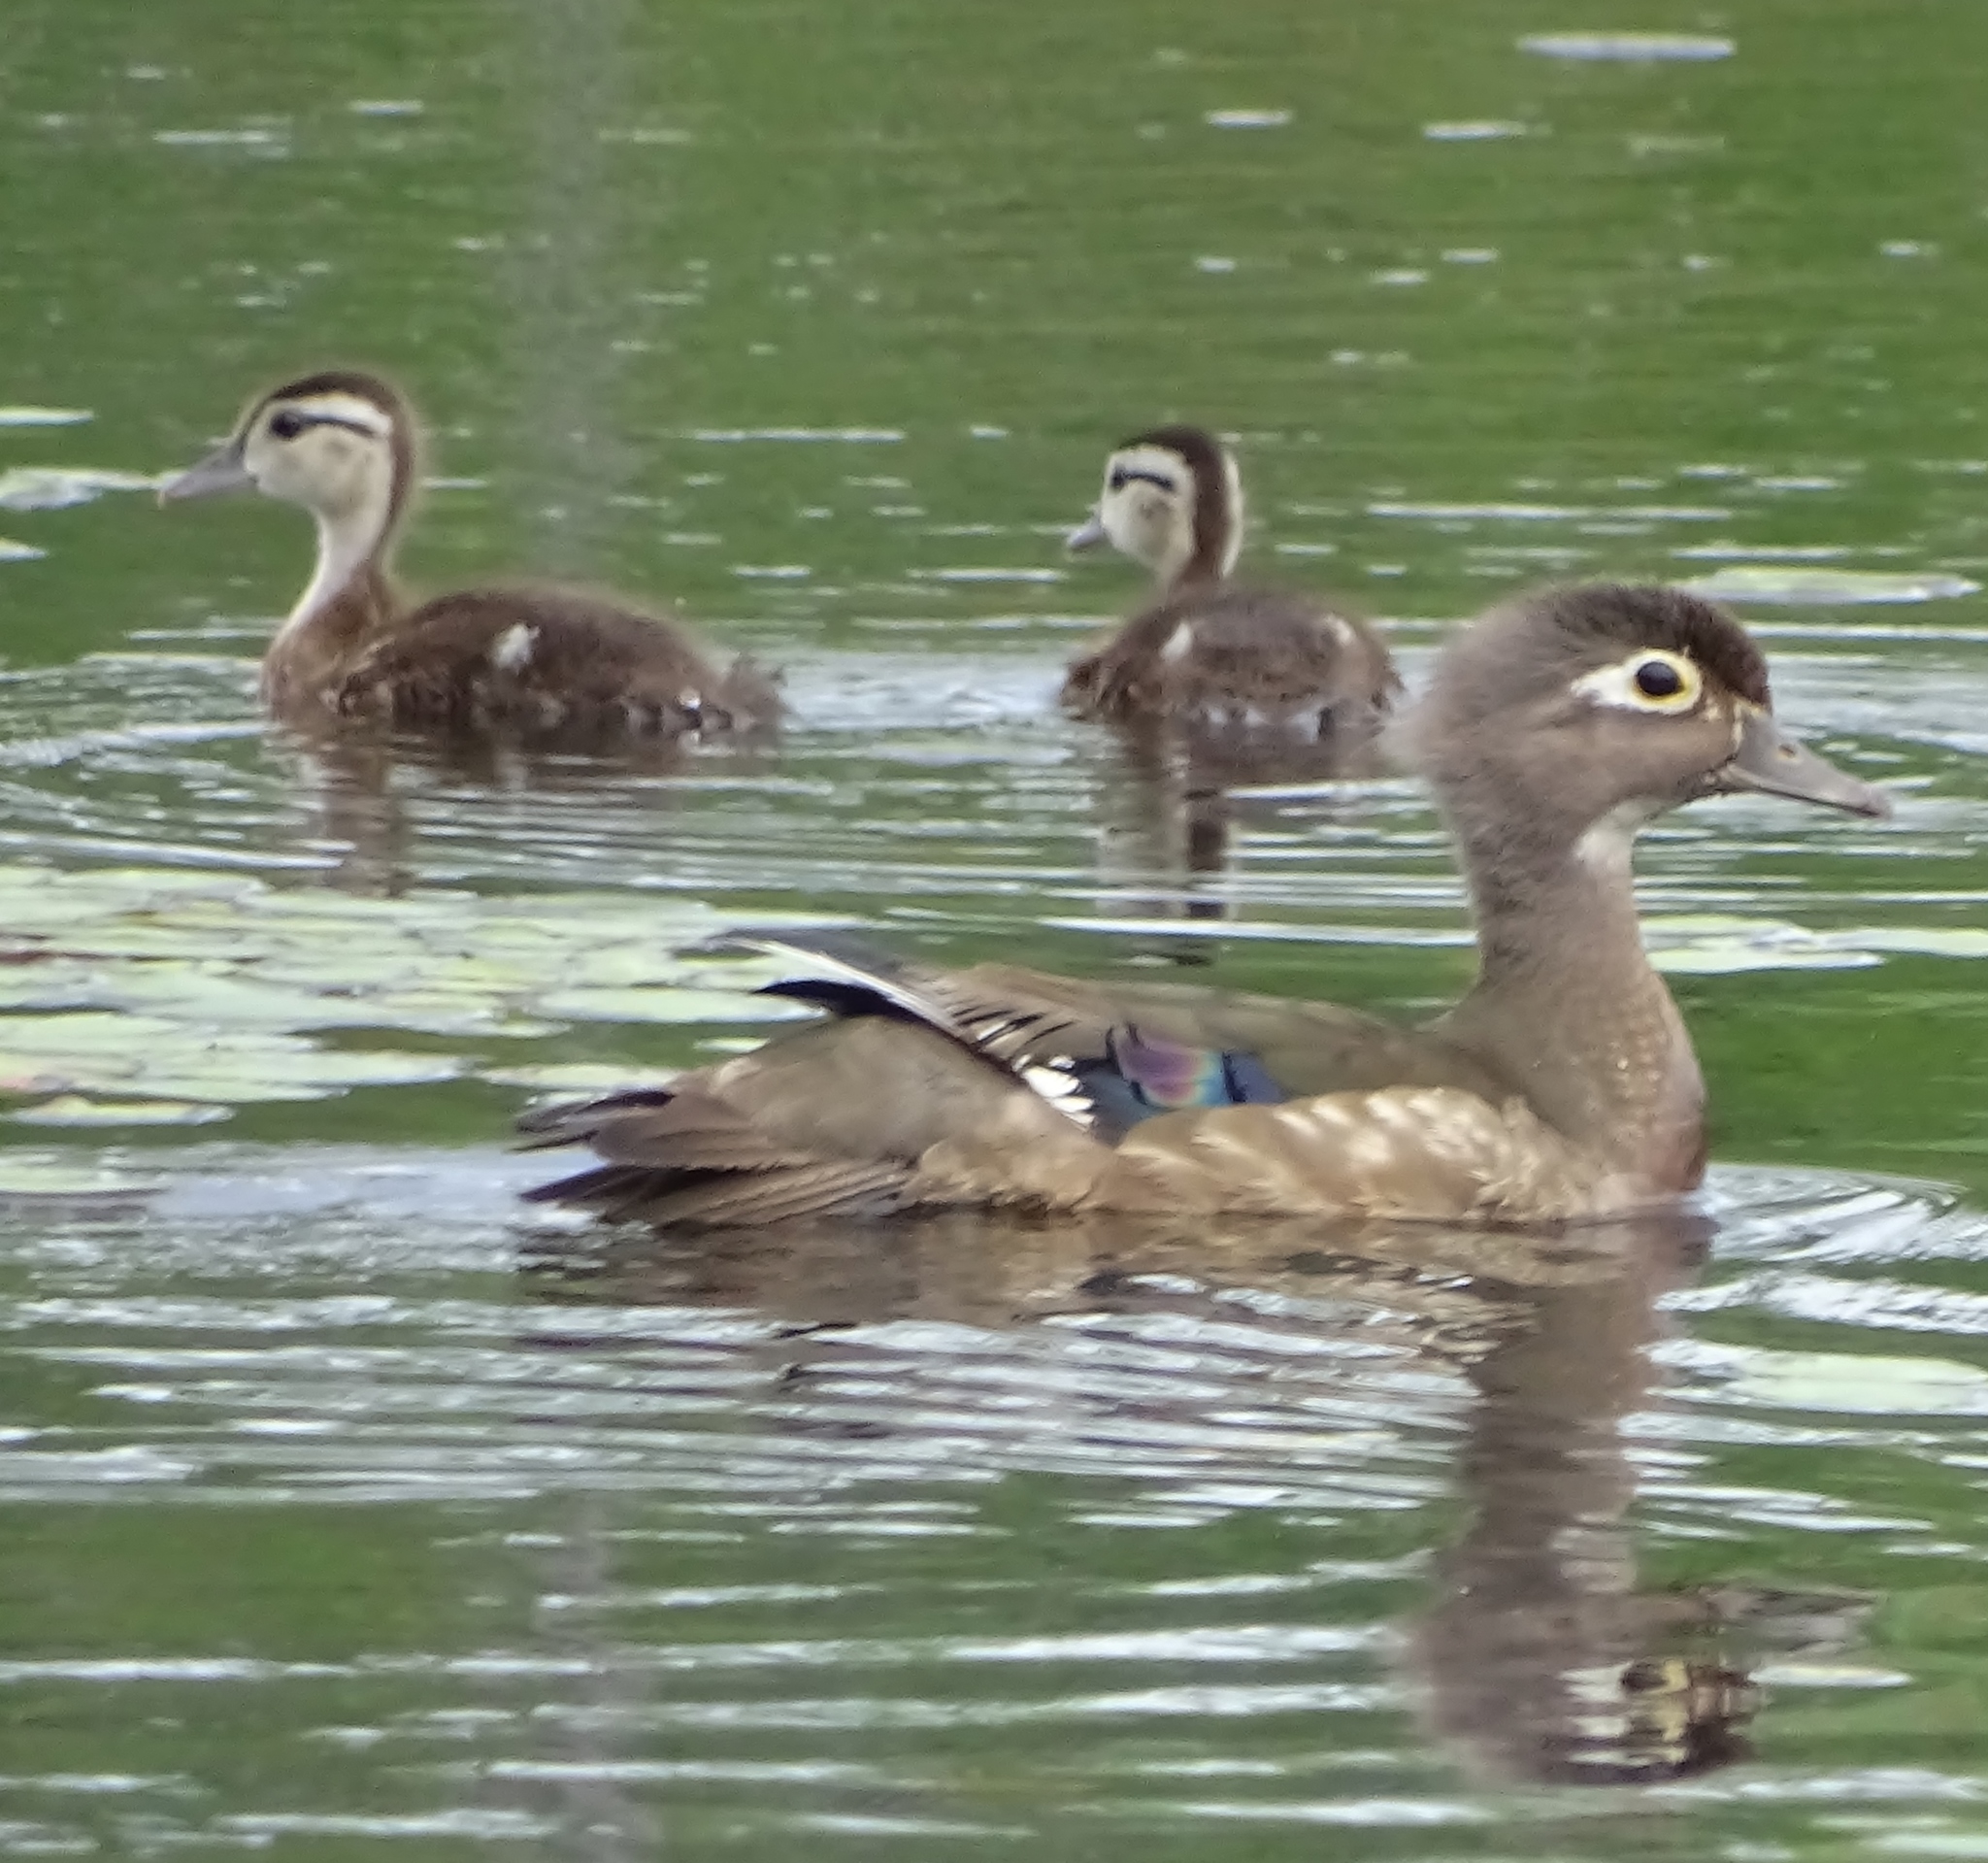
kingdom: Animalia
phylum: Chordata
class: Aves
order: Anseriformes
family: Anatidae
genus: Aix
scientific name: Aix sponsa
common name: Wood duck
